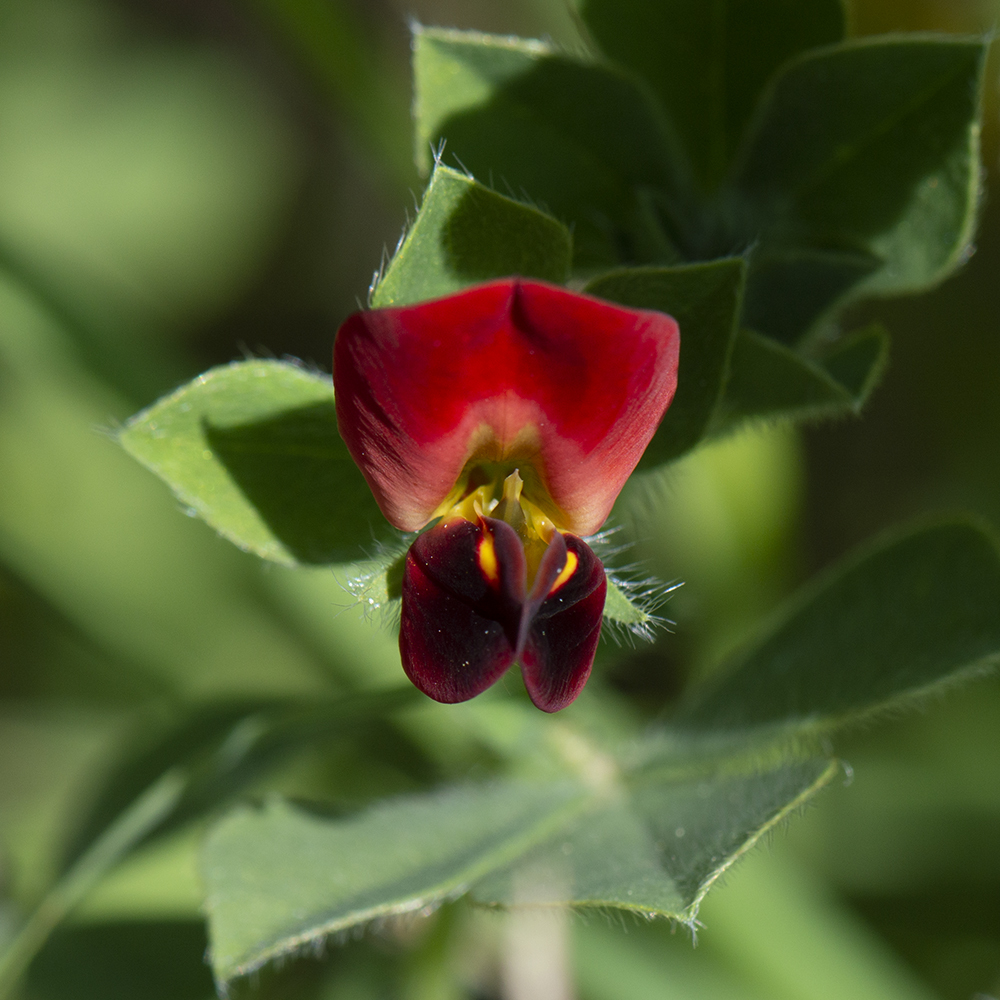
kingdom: Plantae
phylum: Tracheophyta
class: Magnoliopsida
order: Fabales
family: Fabaceae
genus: Lotus
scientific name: Lotus tetragonolobus
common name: Asparagus-pea
